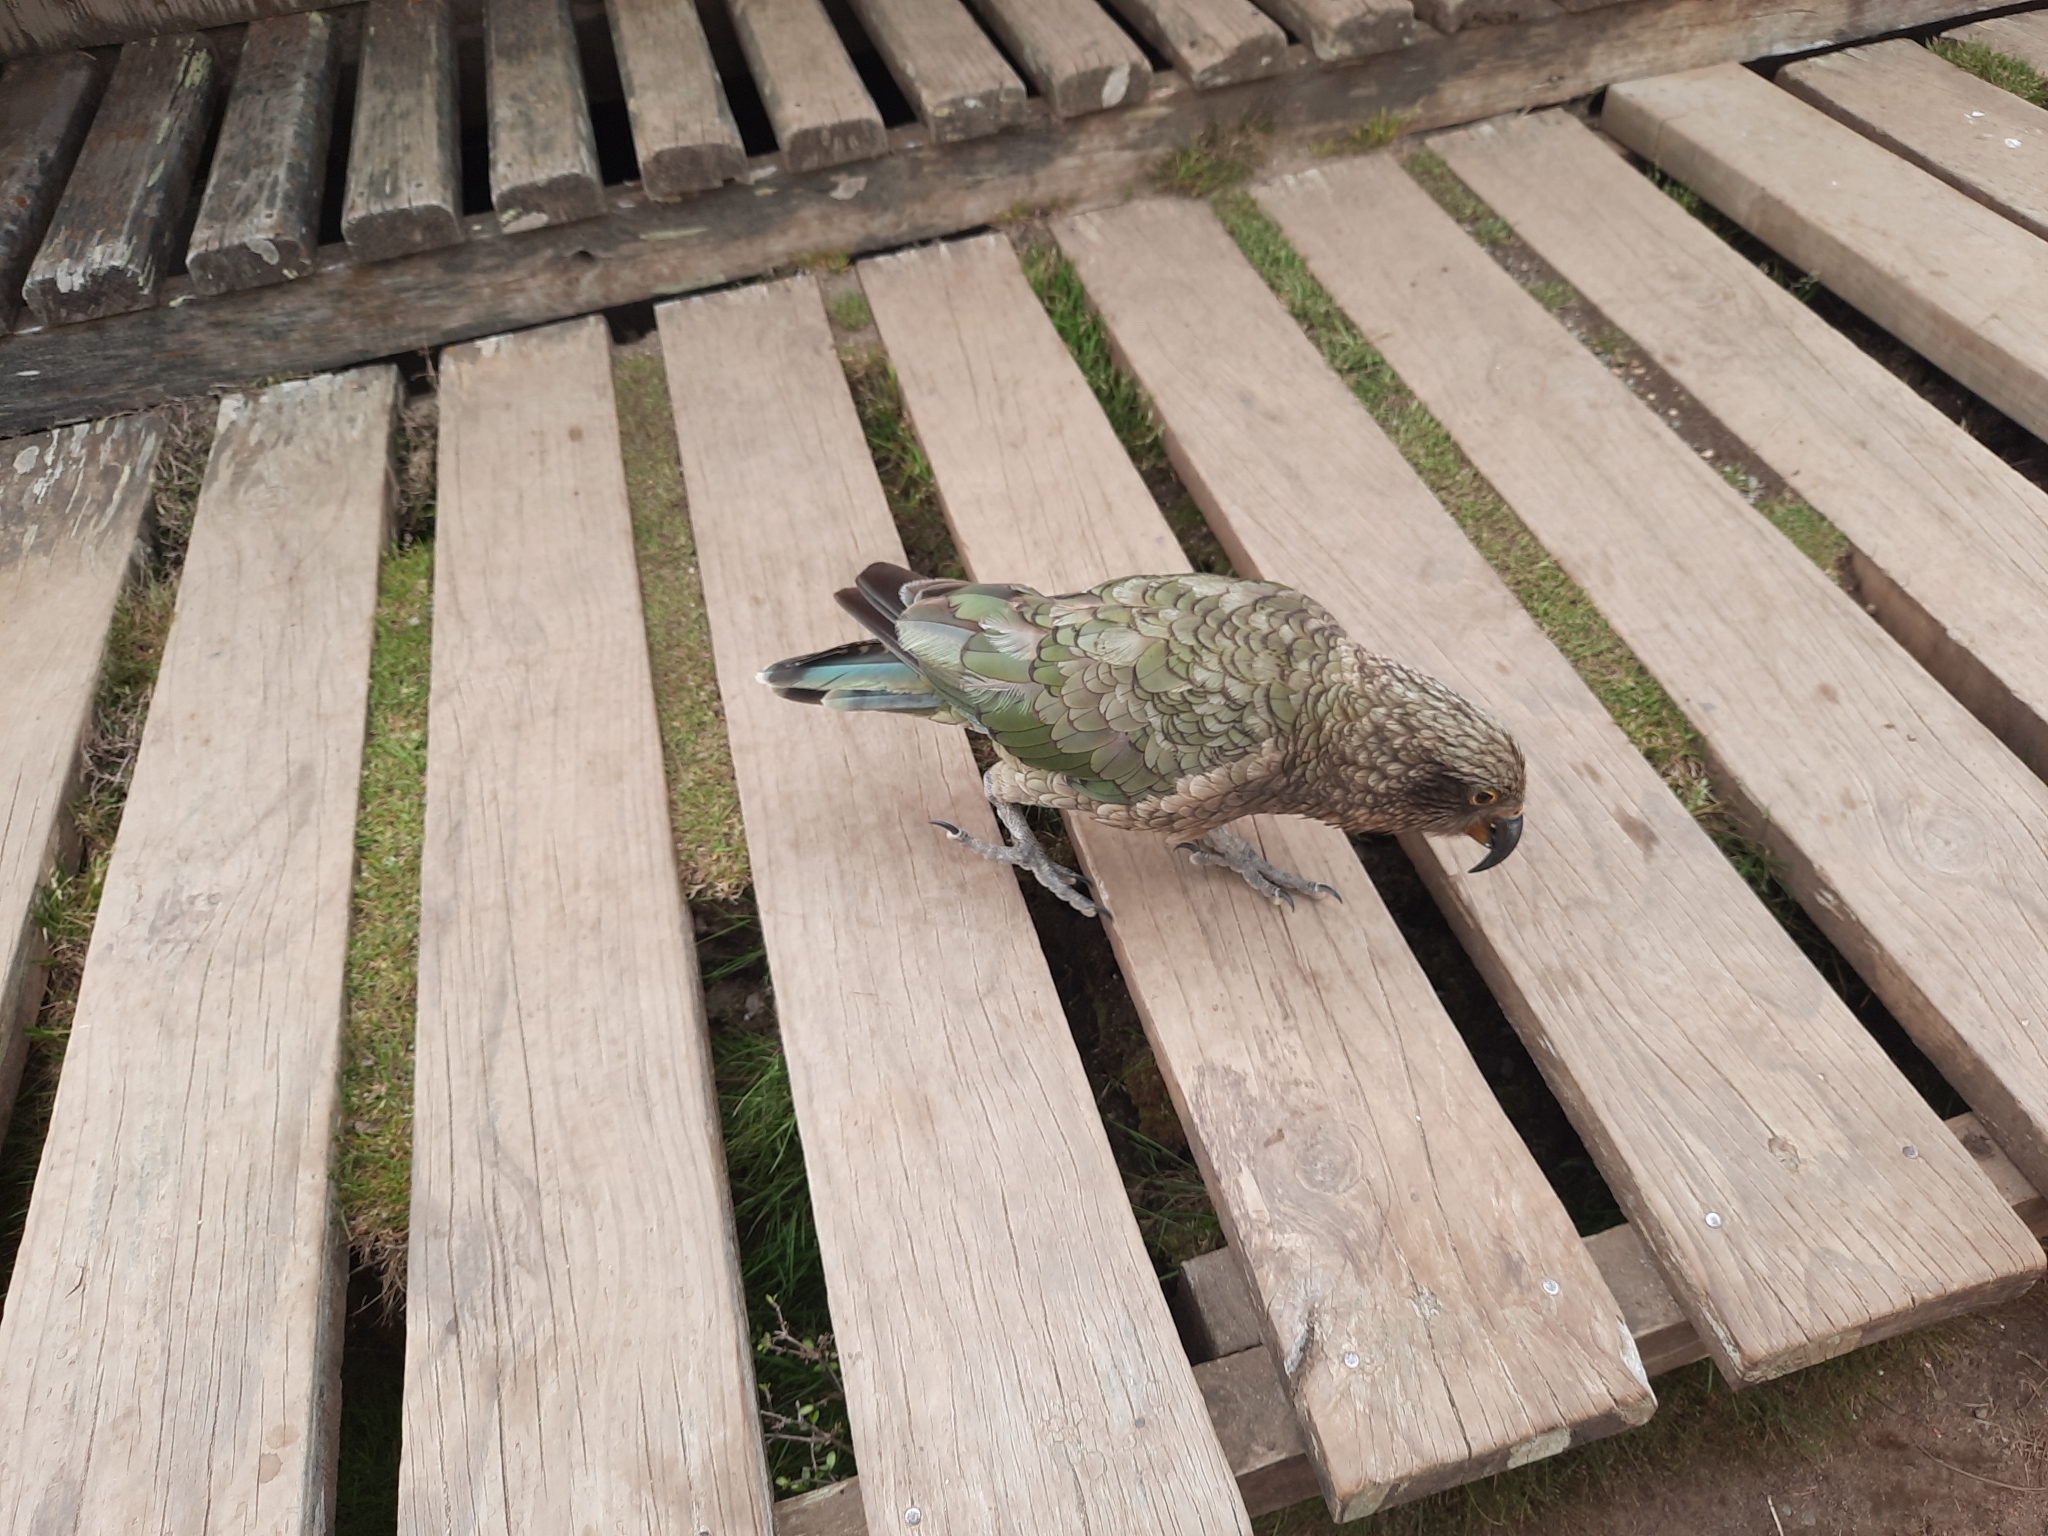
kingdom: Animalia
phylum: Chordata
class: Aves
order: Psittaciformes
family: Psittacidae
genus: Nestor
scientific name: Nestor notabilis
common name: Kea
